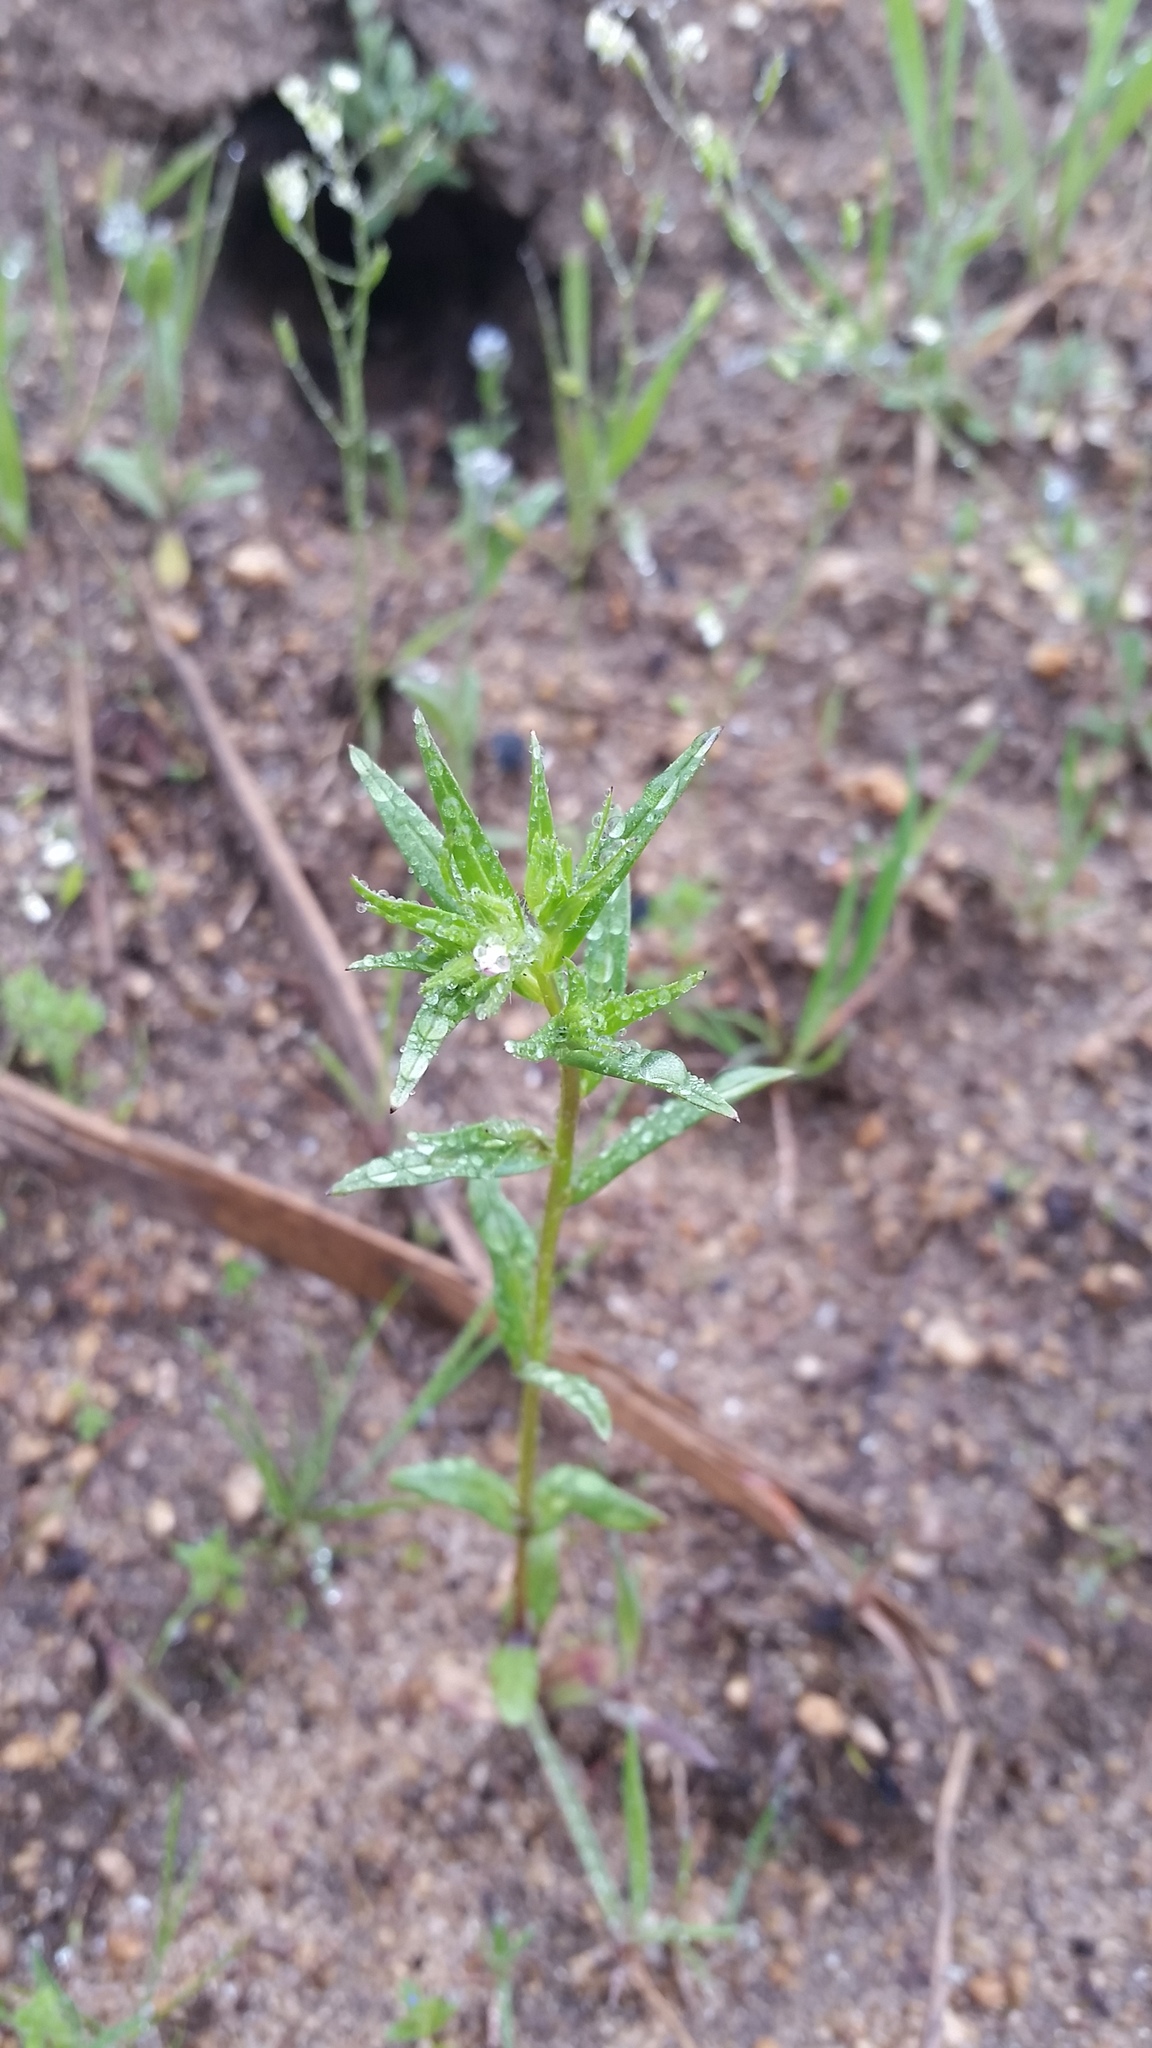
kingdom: Plantae
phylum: Tracheophyta
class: Magnoliopsida
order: Ericales
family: Polemoniaceae
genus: Collomia
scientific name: Collomia linearis
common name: Tiny trumpet
